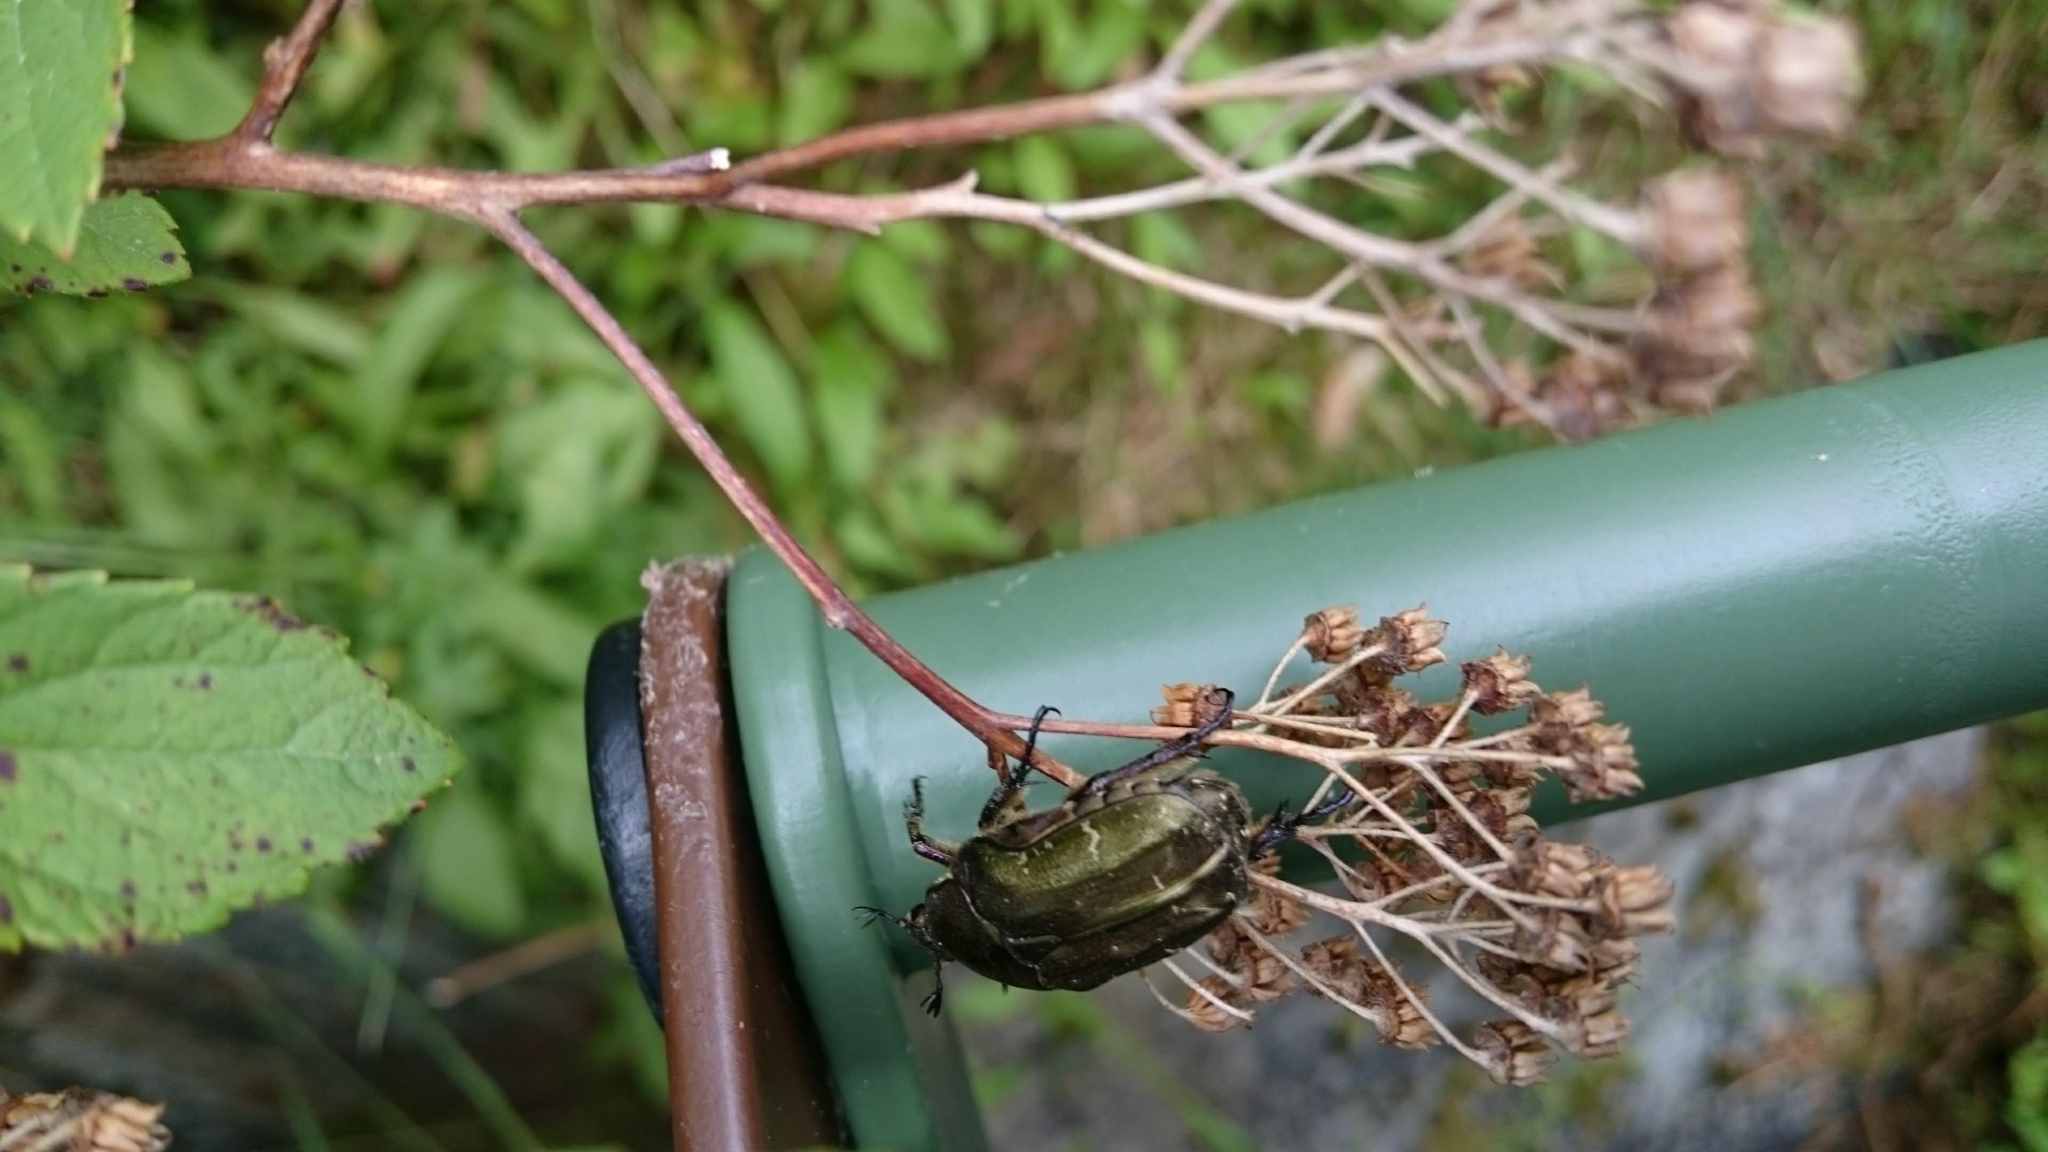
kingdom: Animalia
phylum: Arthropoda
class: Insecta
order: Coleoptera
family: Scarabaeidae
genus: Protaetia
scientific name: Protaetia cuprea
